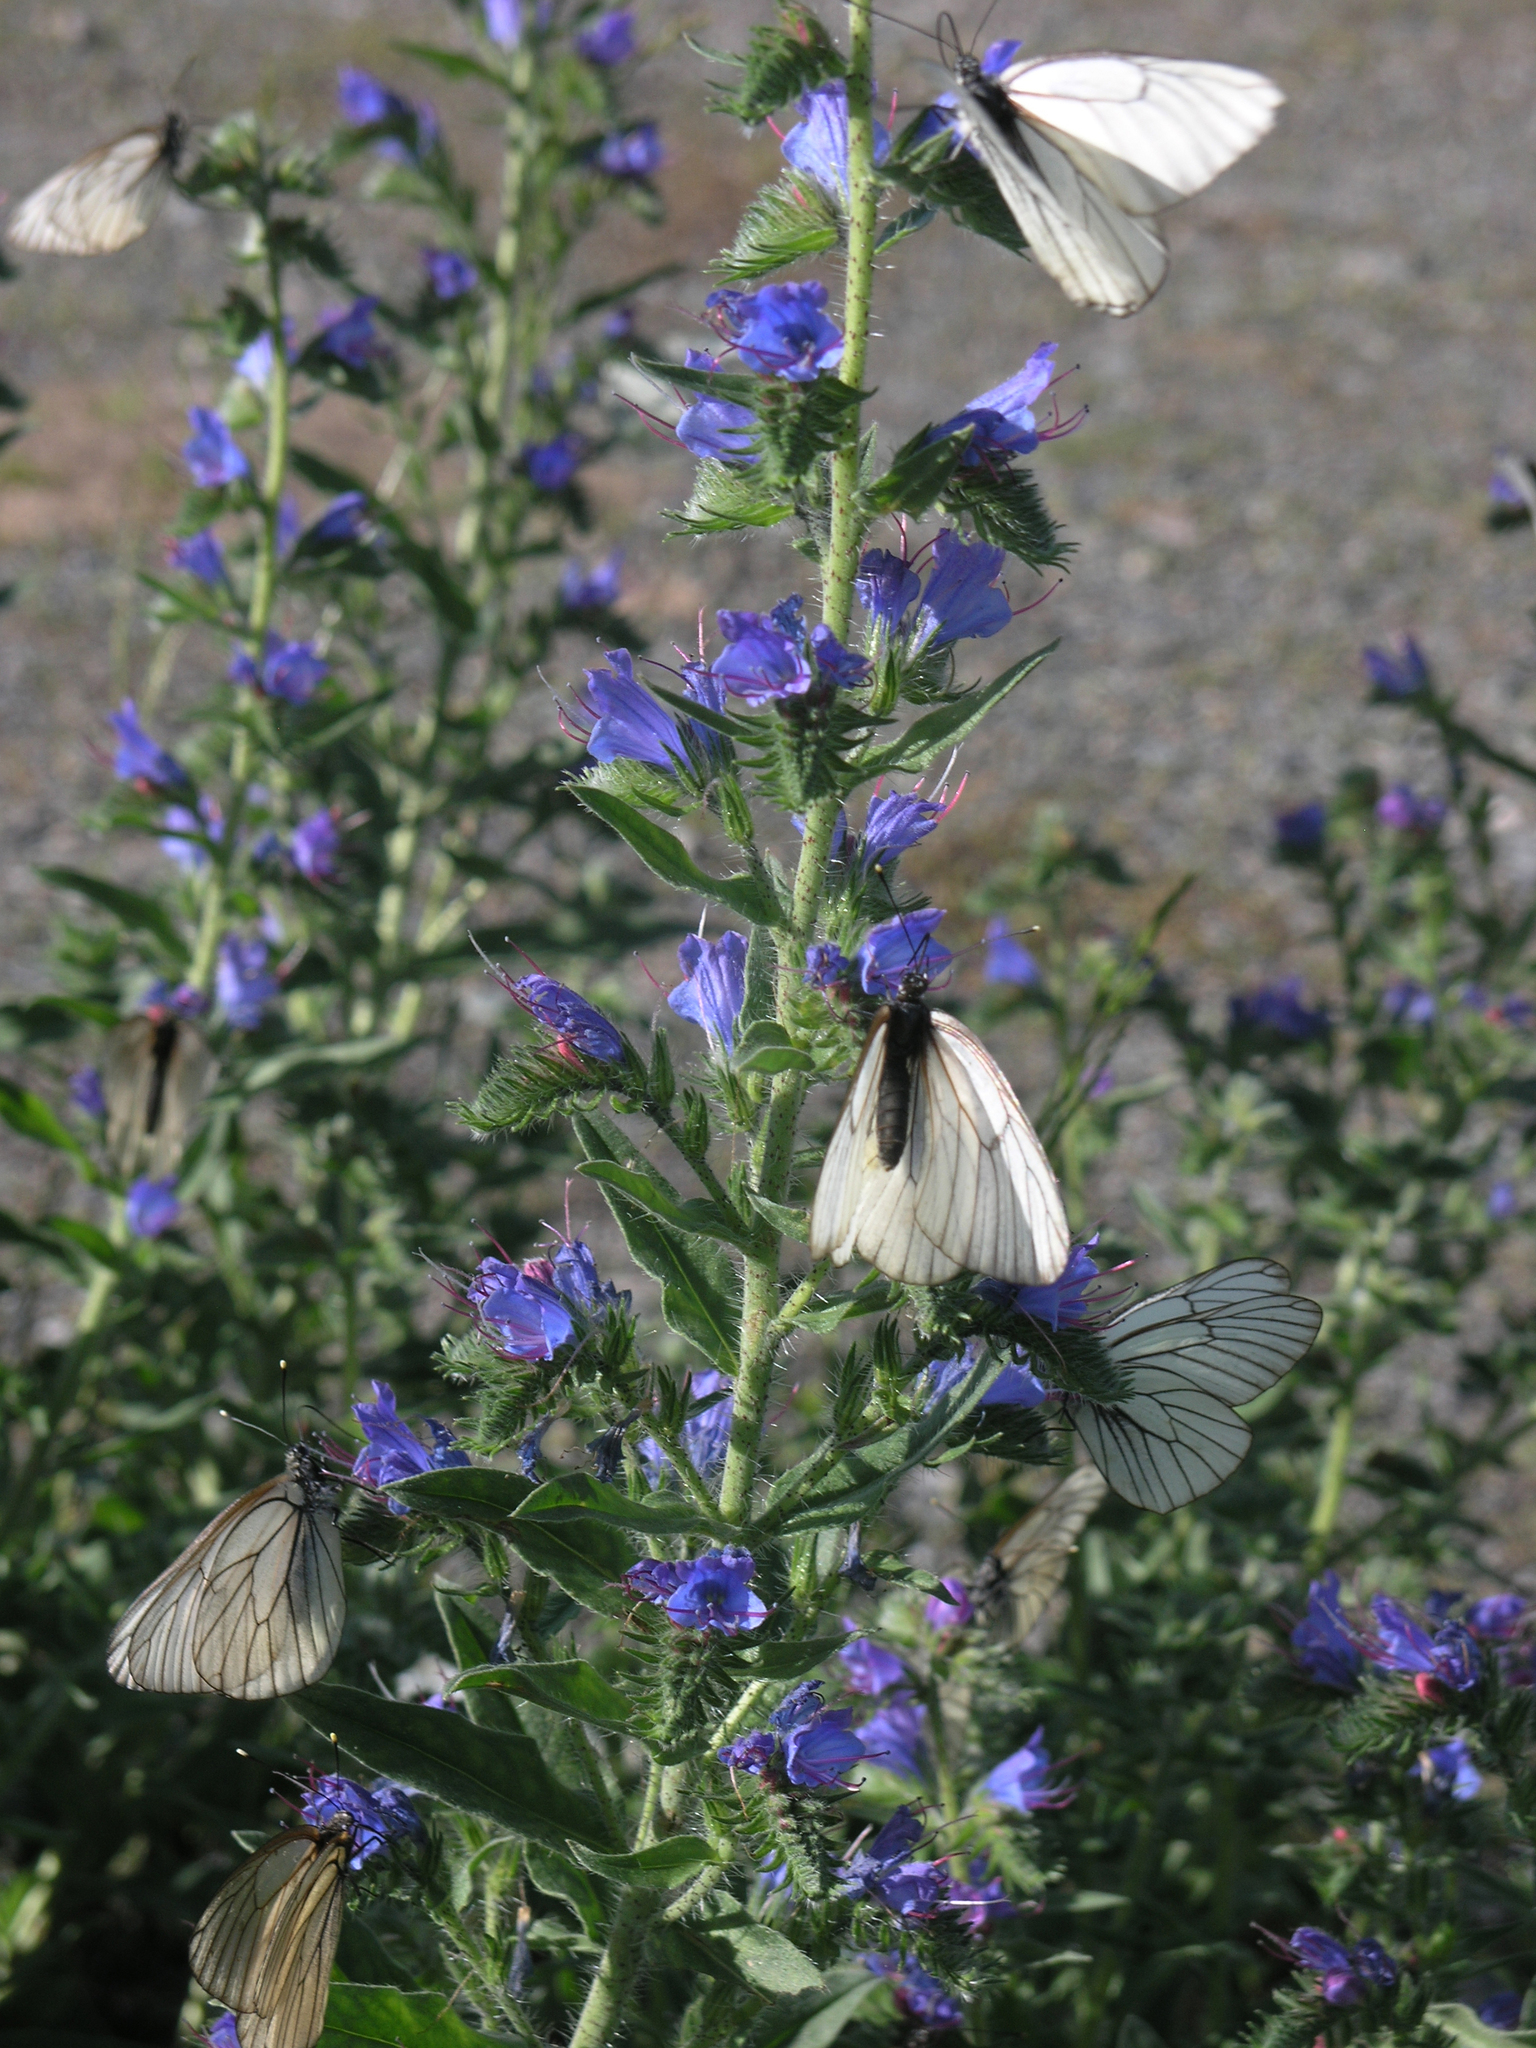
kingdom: Plantae
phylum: Tracheophyta
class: Magnoliopsida
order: Boraginales
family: Boraginaceae
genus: Echium
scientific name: Echium vulgare
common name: Common viper's bugloss
